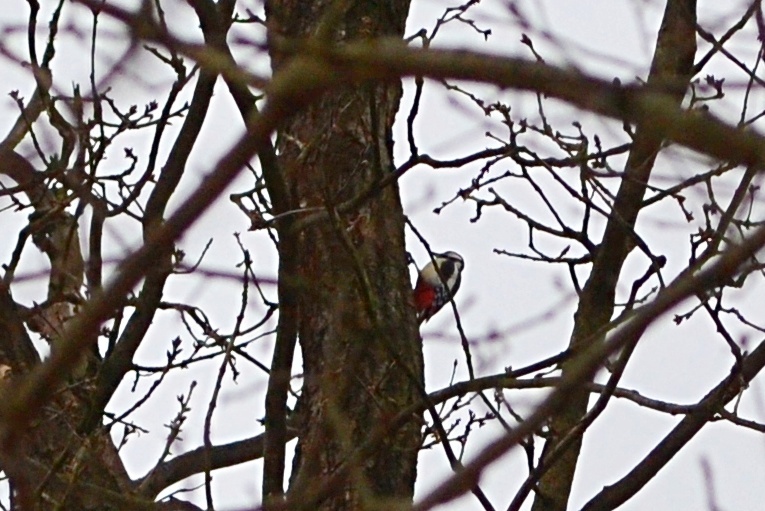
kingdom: Animalia
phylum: Chordata
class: Aves
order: Piciformes
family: Picidae
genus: Dendrocopos
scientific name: Dendrocopos major
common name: Great spotted woodpecker
